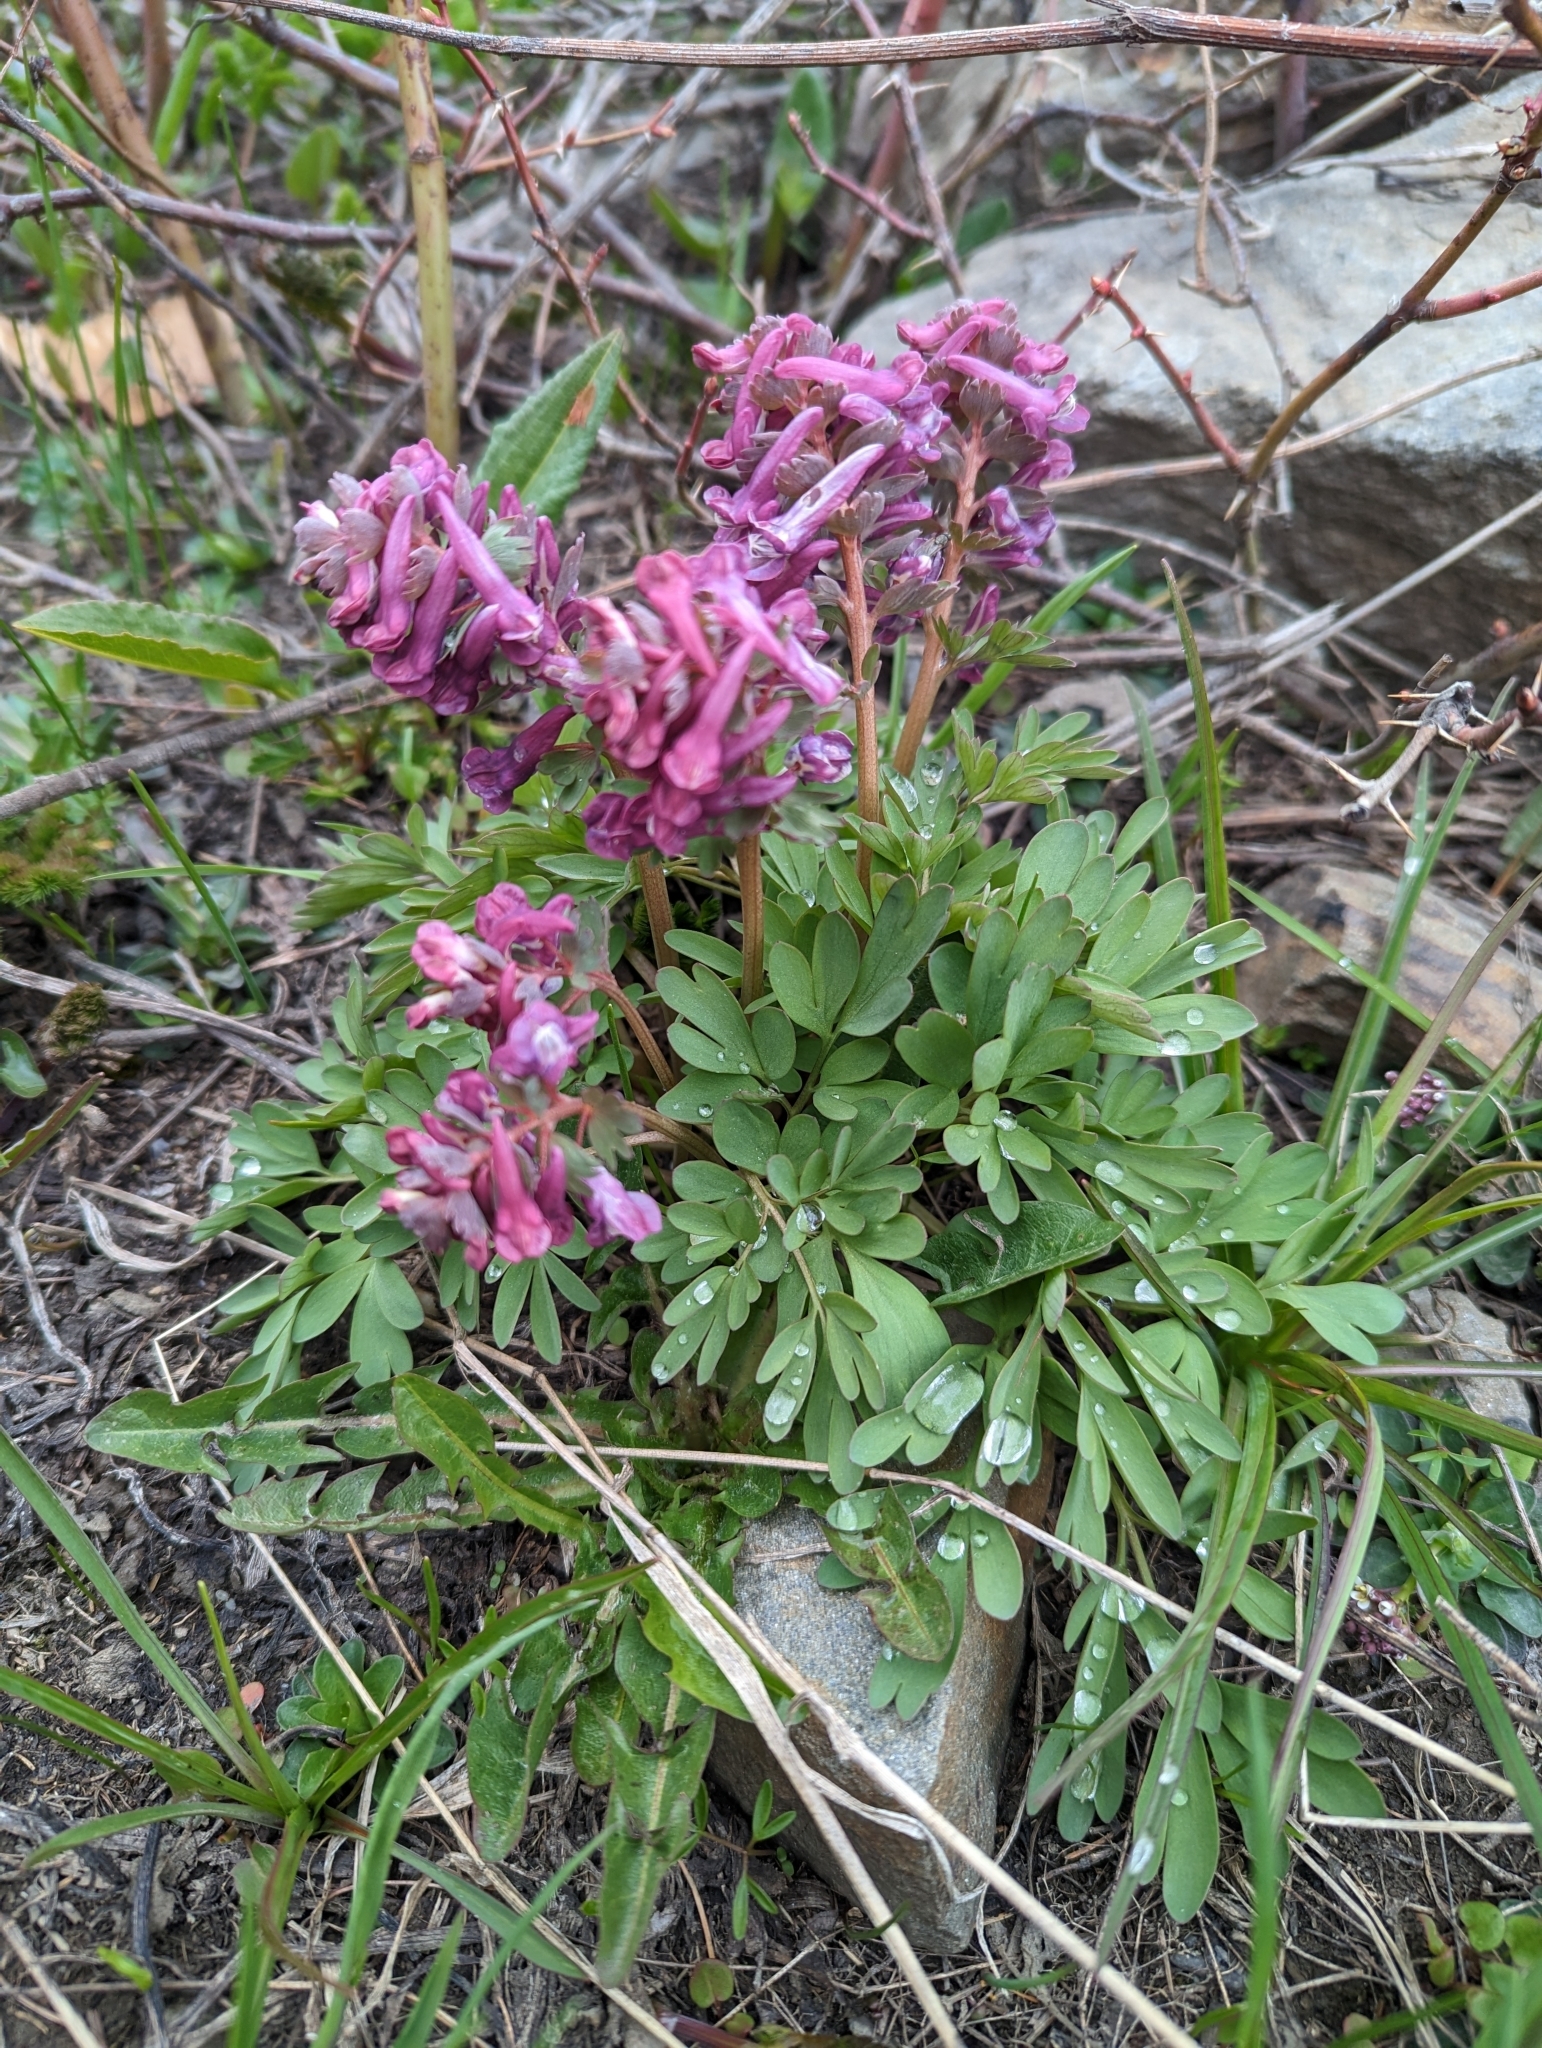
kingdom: Plantae
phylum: Tracheophyta
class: Magnoliopsida
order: Ranunculales
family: Papaveraceae
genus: Corydalis
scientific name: Corydalis solida
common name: Bird-in-a-bush
